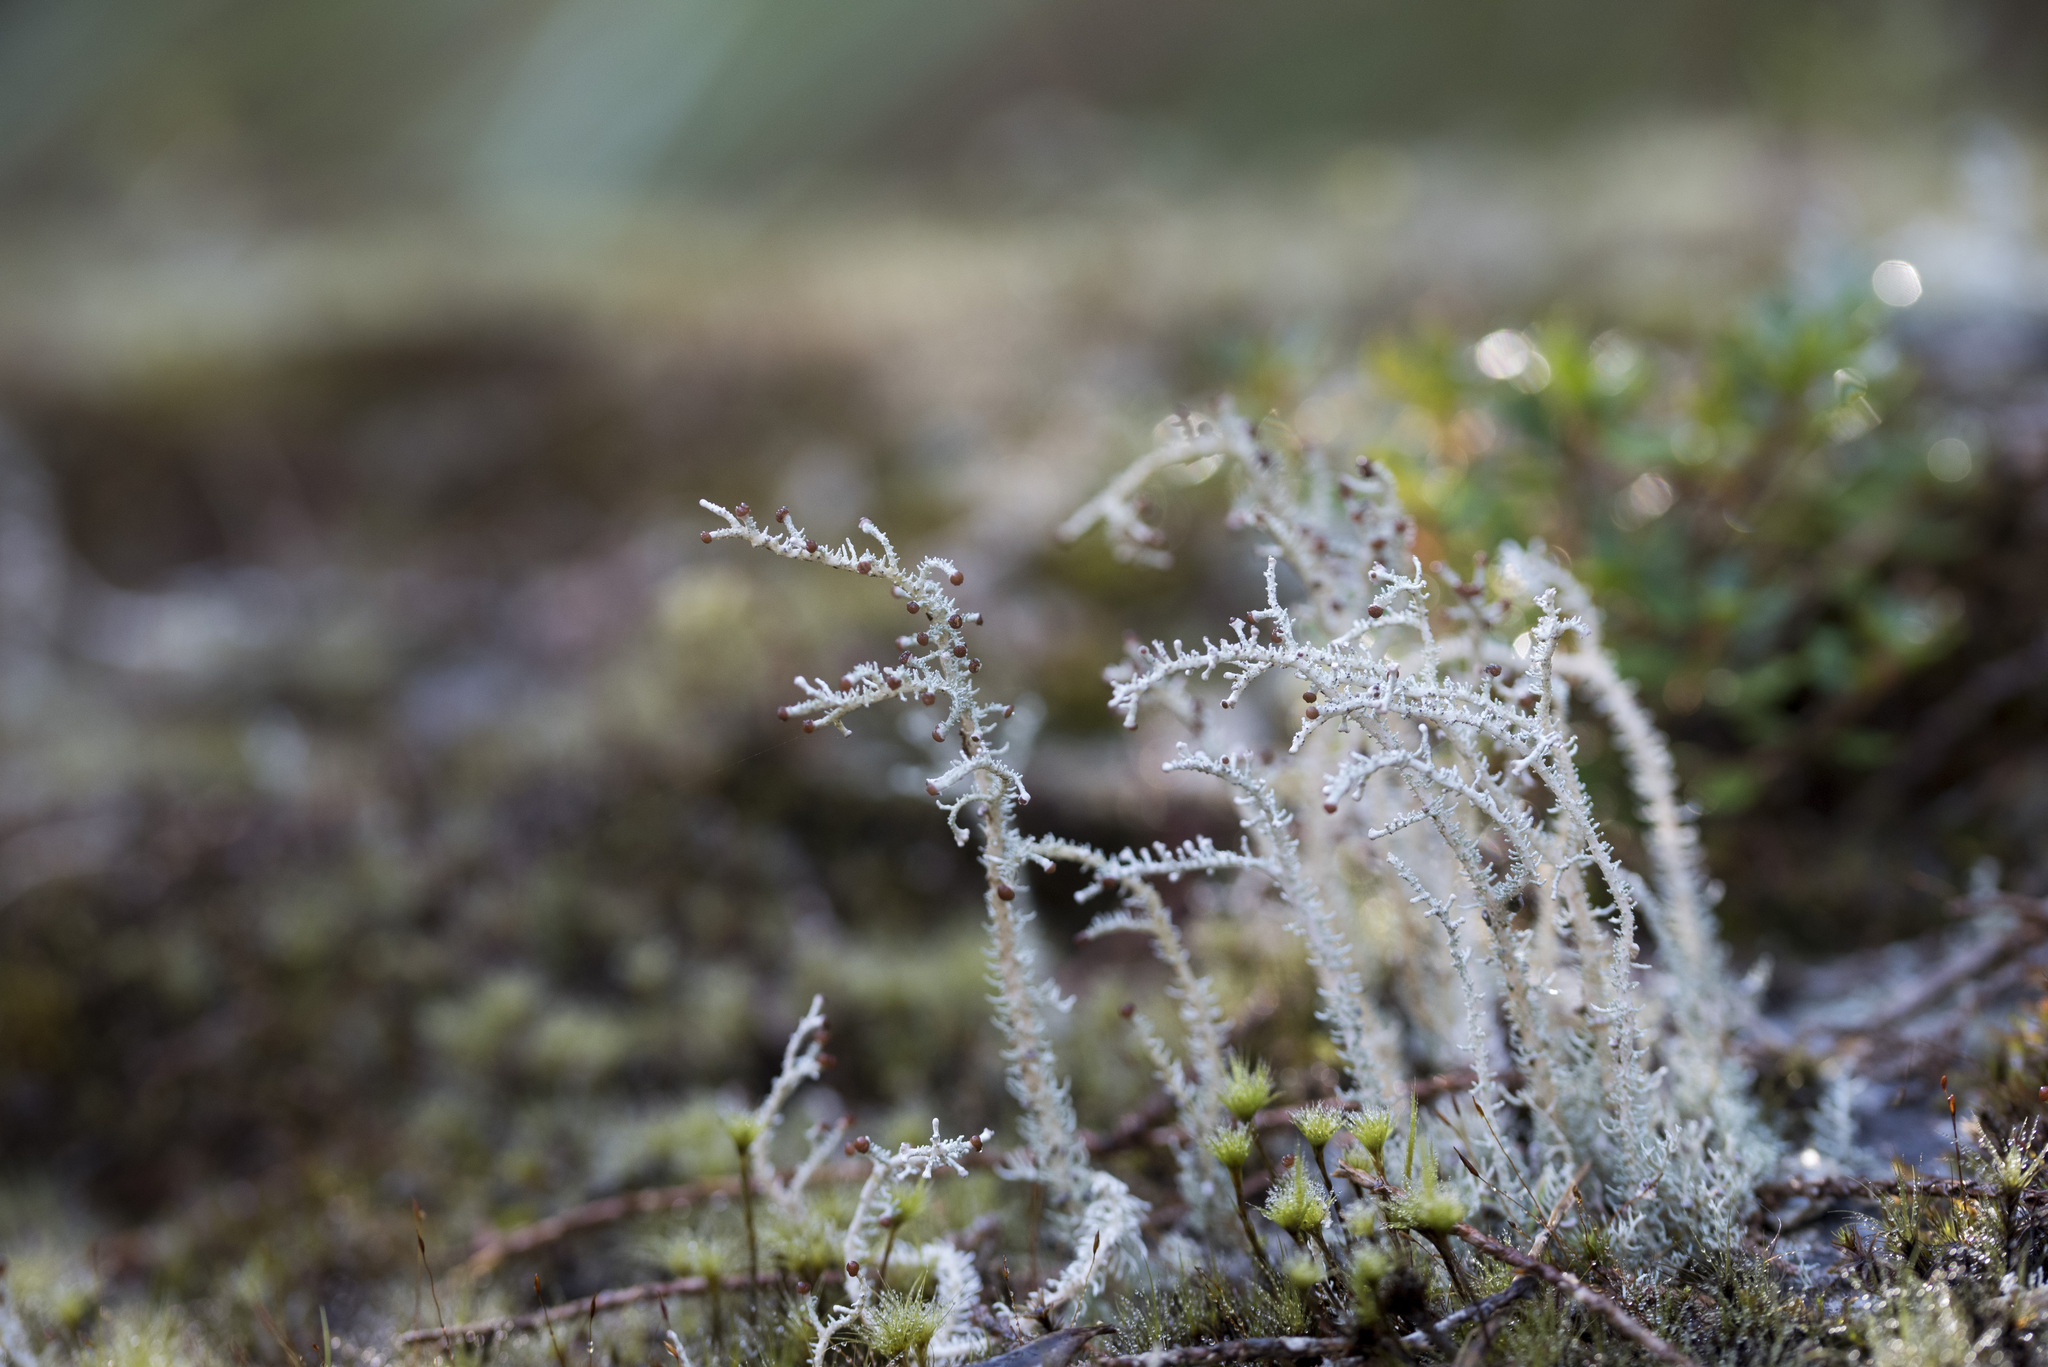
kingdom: Fungi
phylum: Ascomycota
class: Lecanoromycetes
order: Lecanorales
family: Stereocaulaceae
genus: Stereocaulon
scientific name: Stereocaulon massartianum
